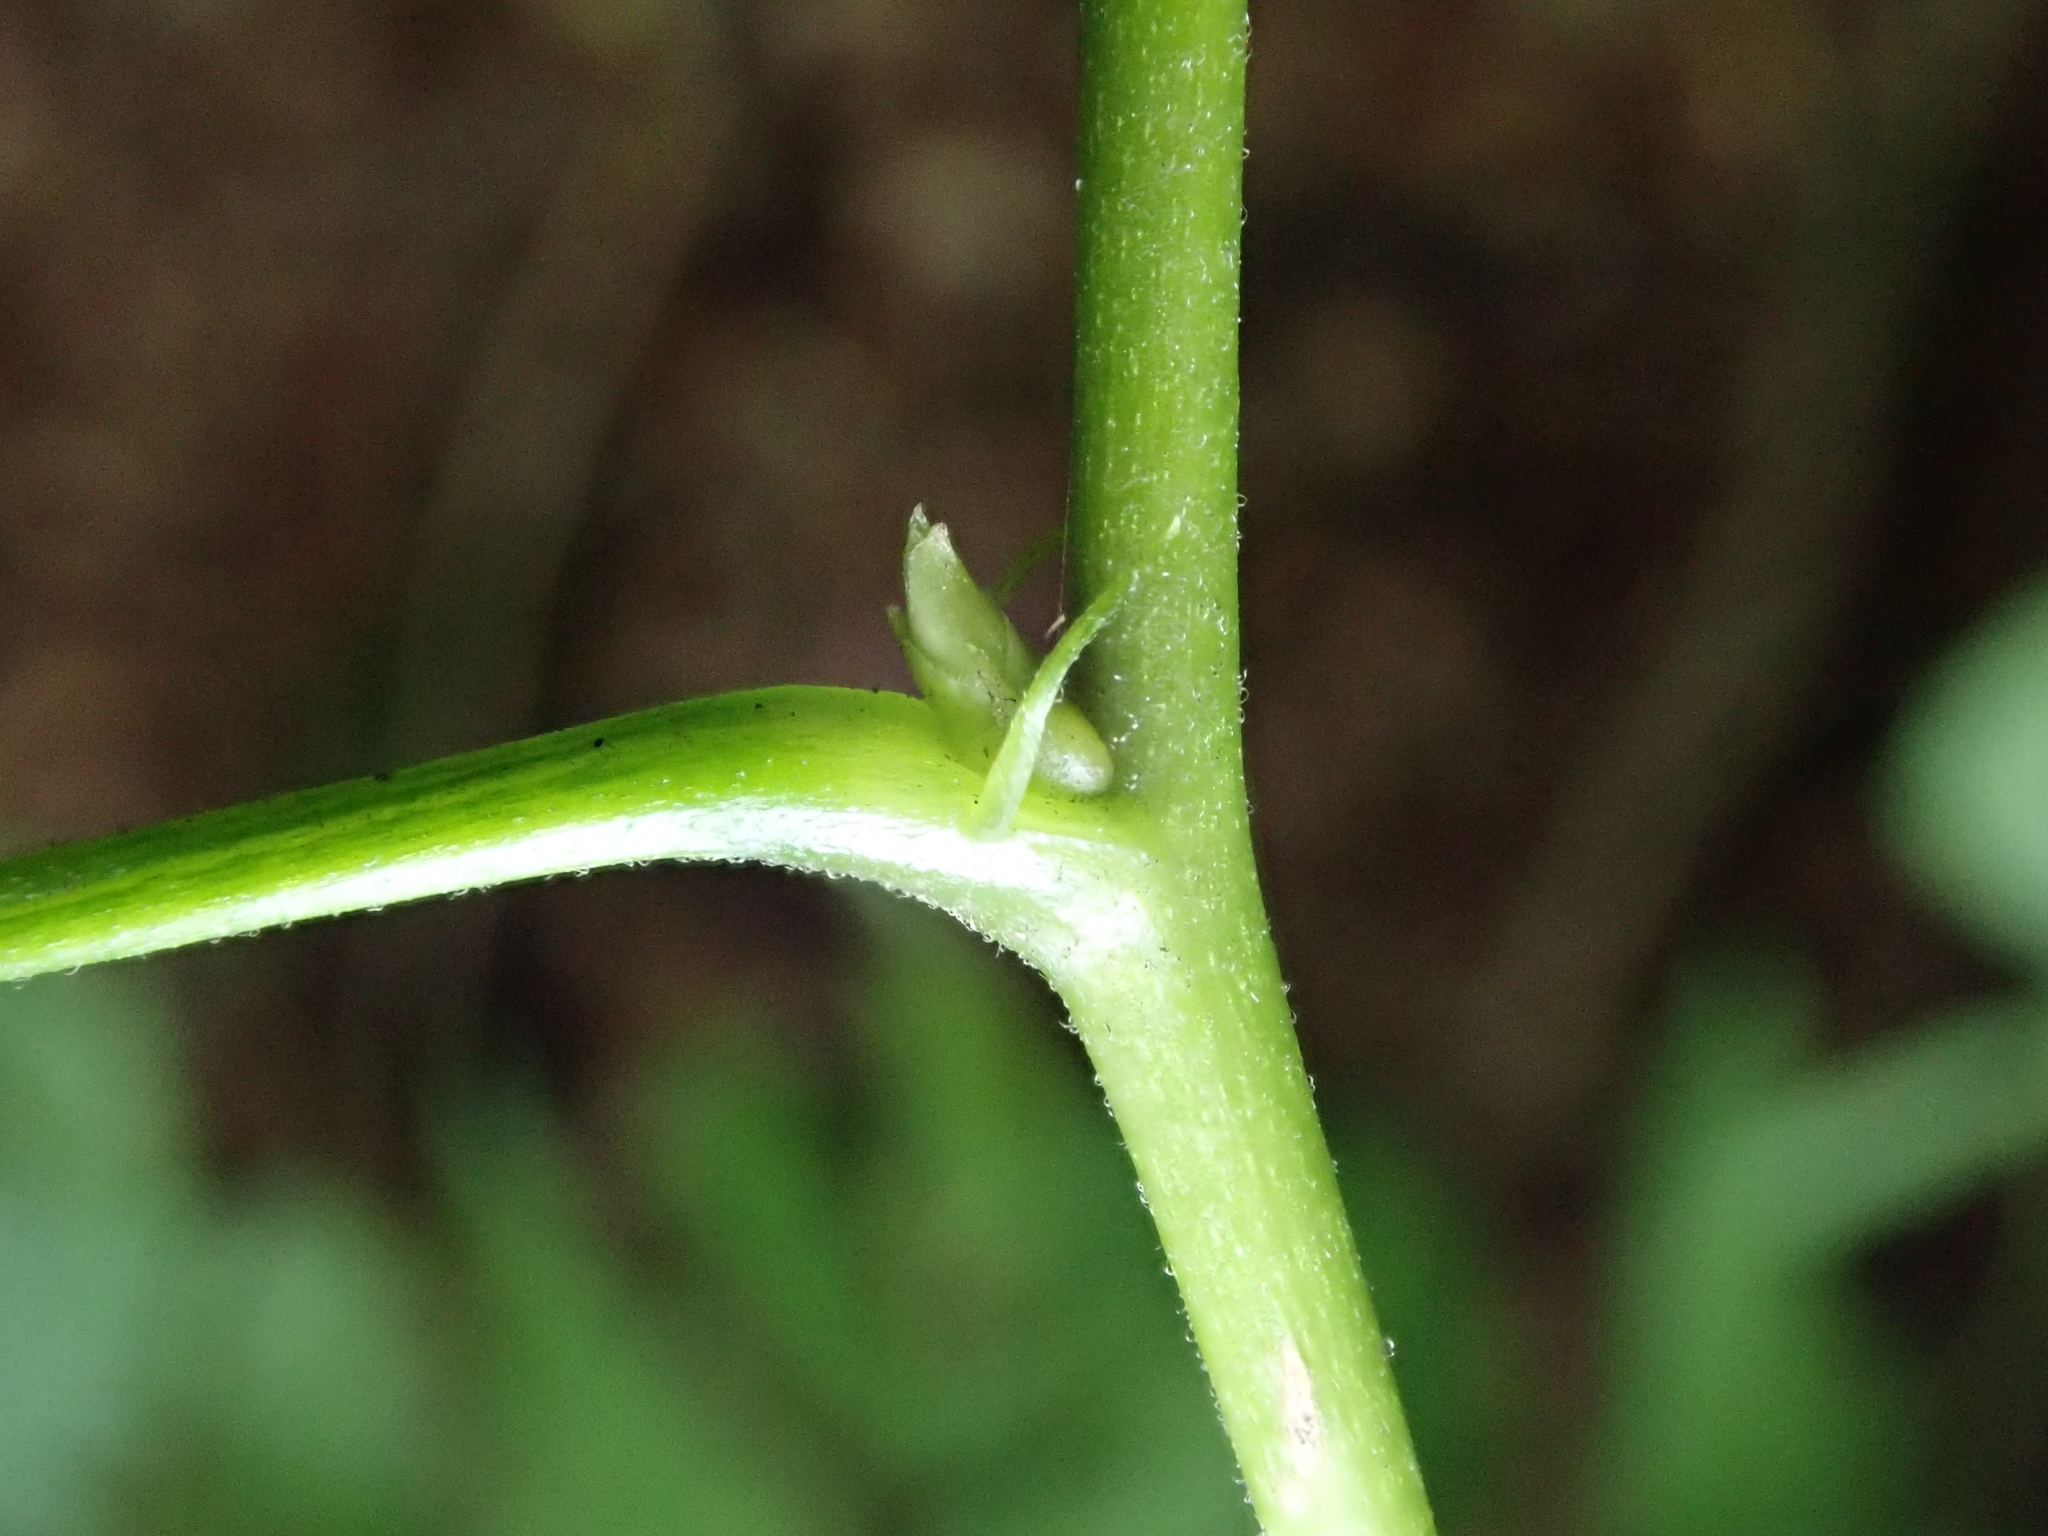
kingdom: Plantae
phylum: Tracheophyta
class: Magnoliopsida
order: Rosales
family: Rosaceae
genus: Rubus
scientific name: Rubus spectabilis
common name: Salmonberry
